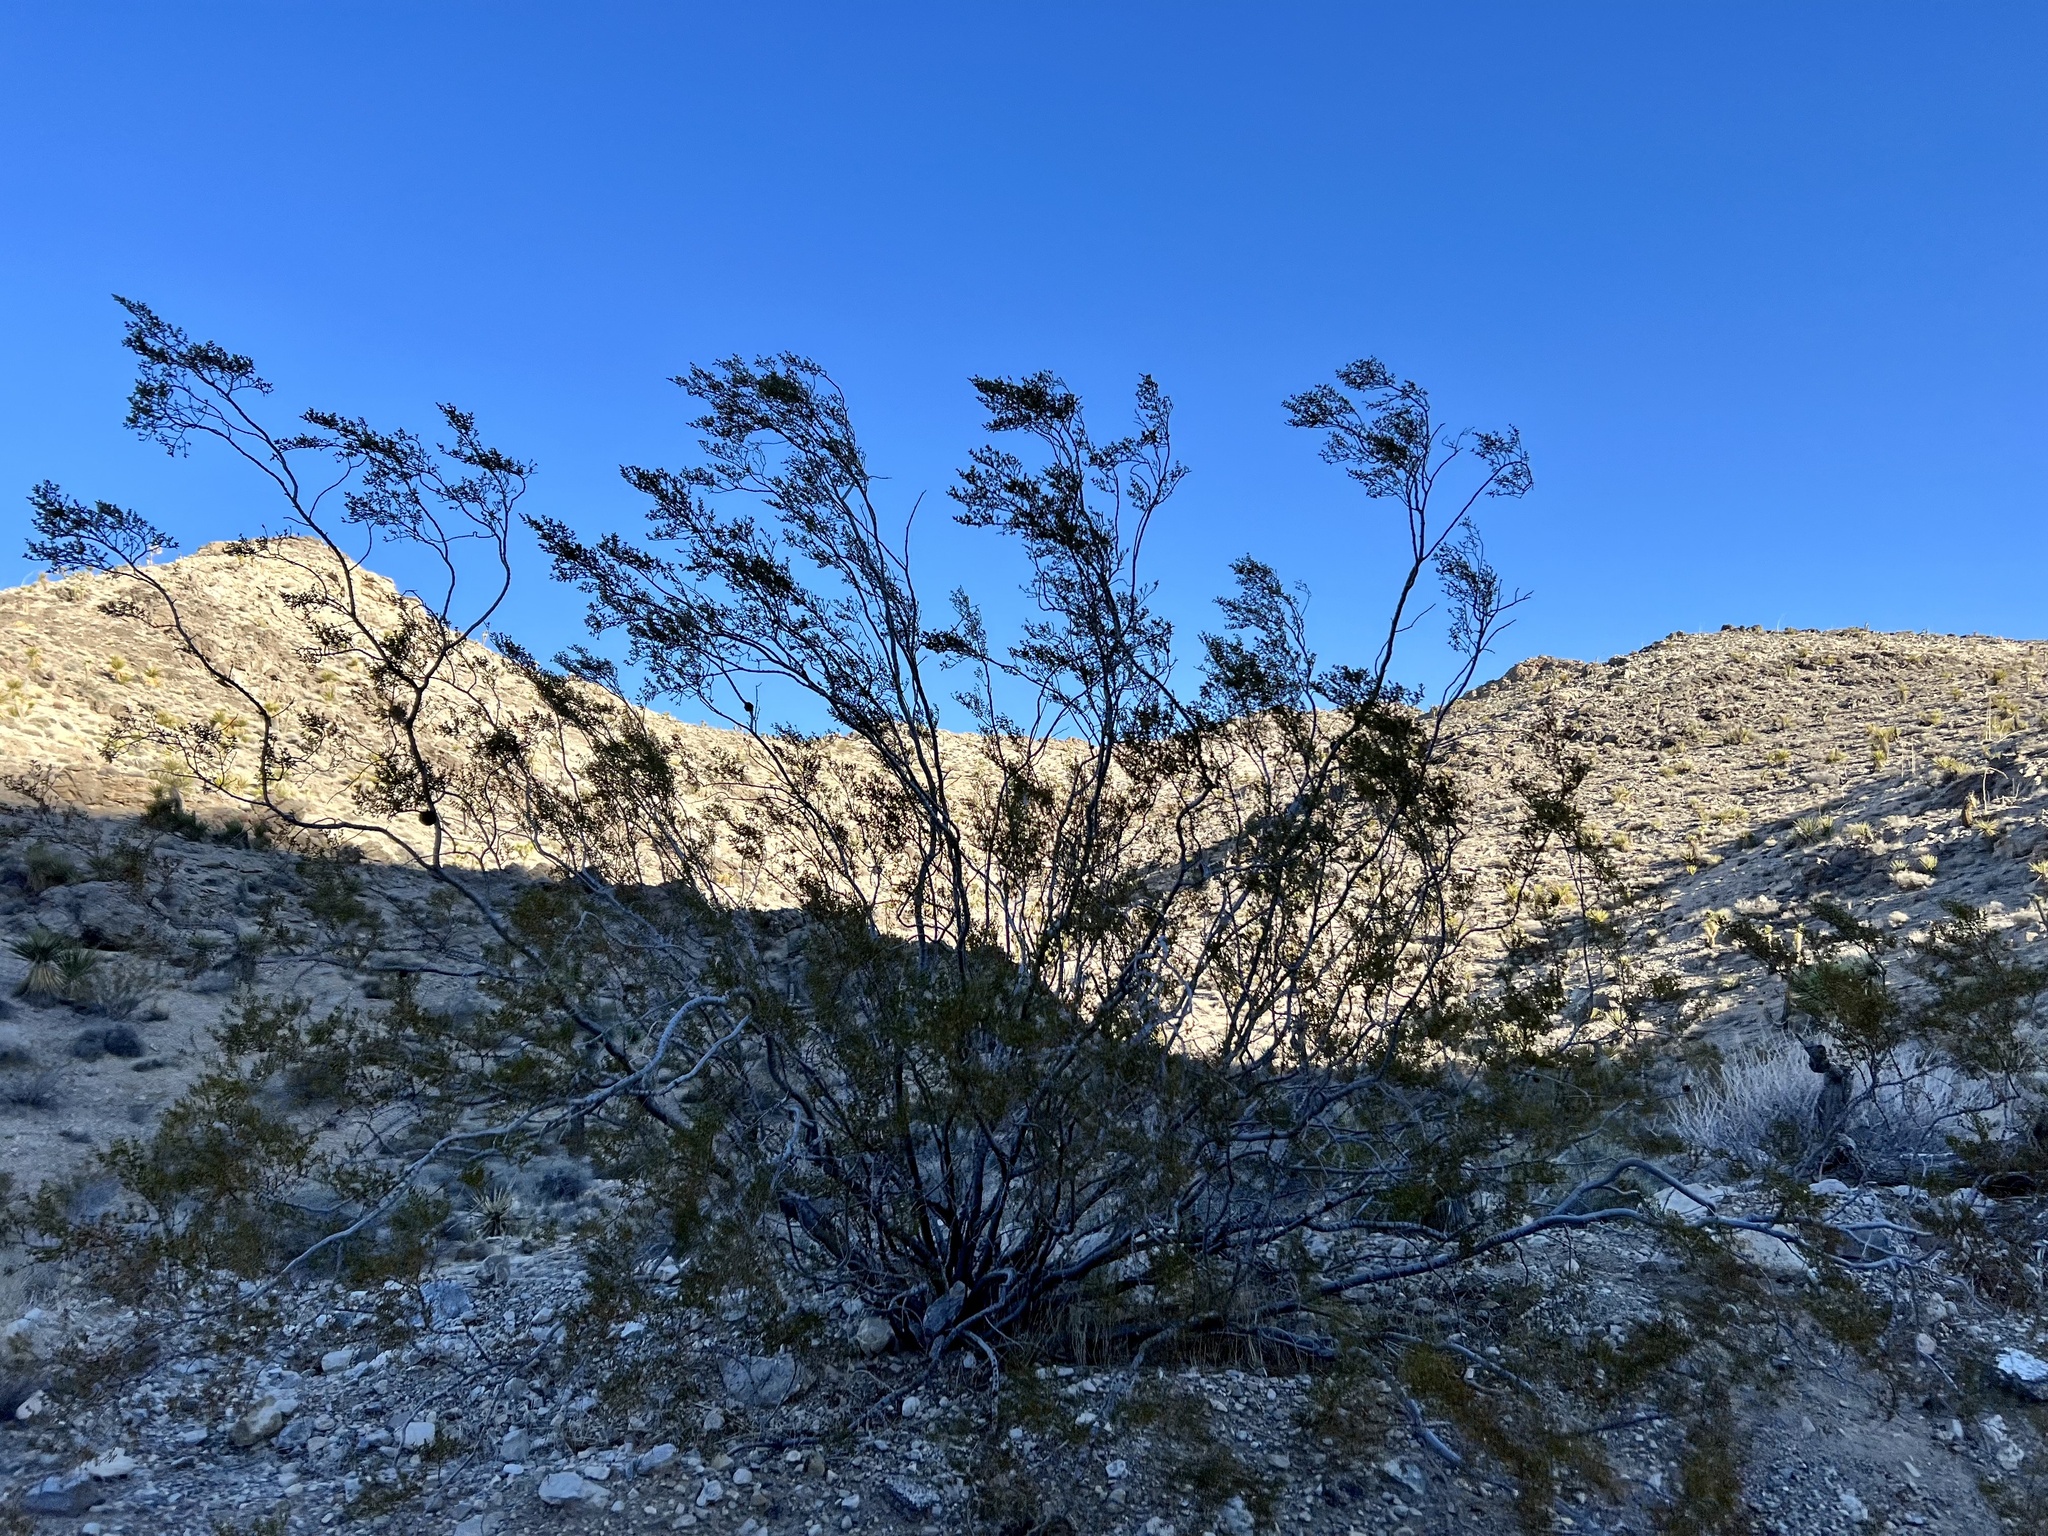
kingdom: Plantae
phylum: Tracheophyta
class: Magnoliopsida
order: Zygophyllales
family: Zygophyllaceae
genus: Larrea
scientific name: Larrea tridentata
